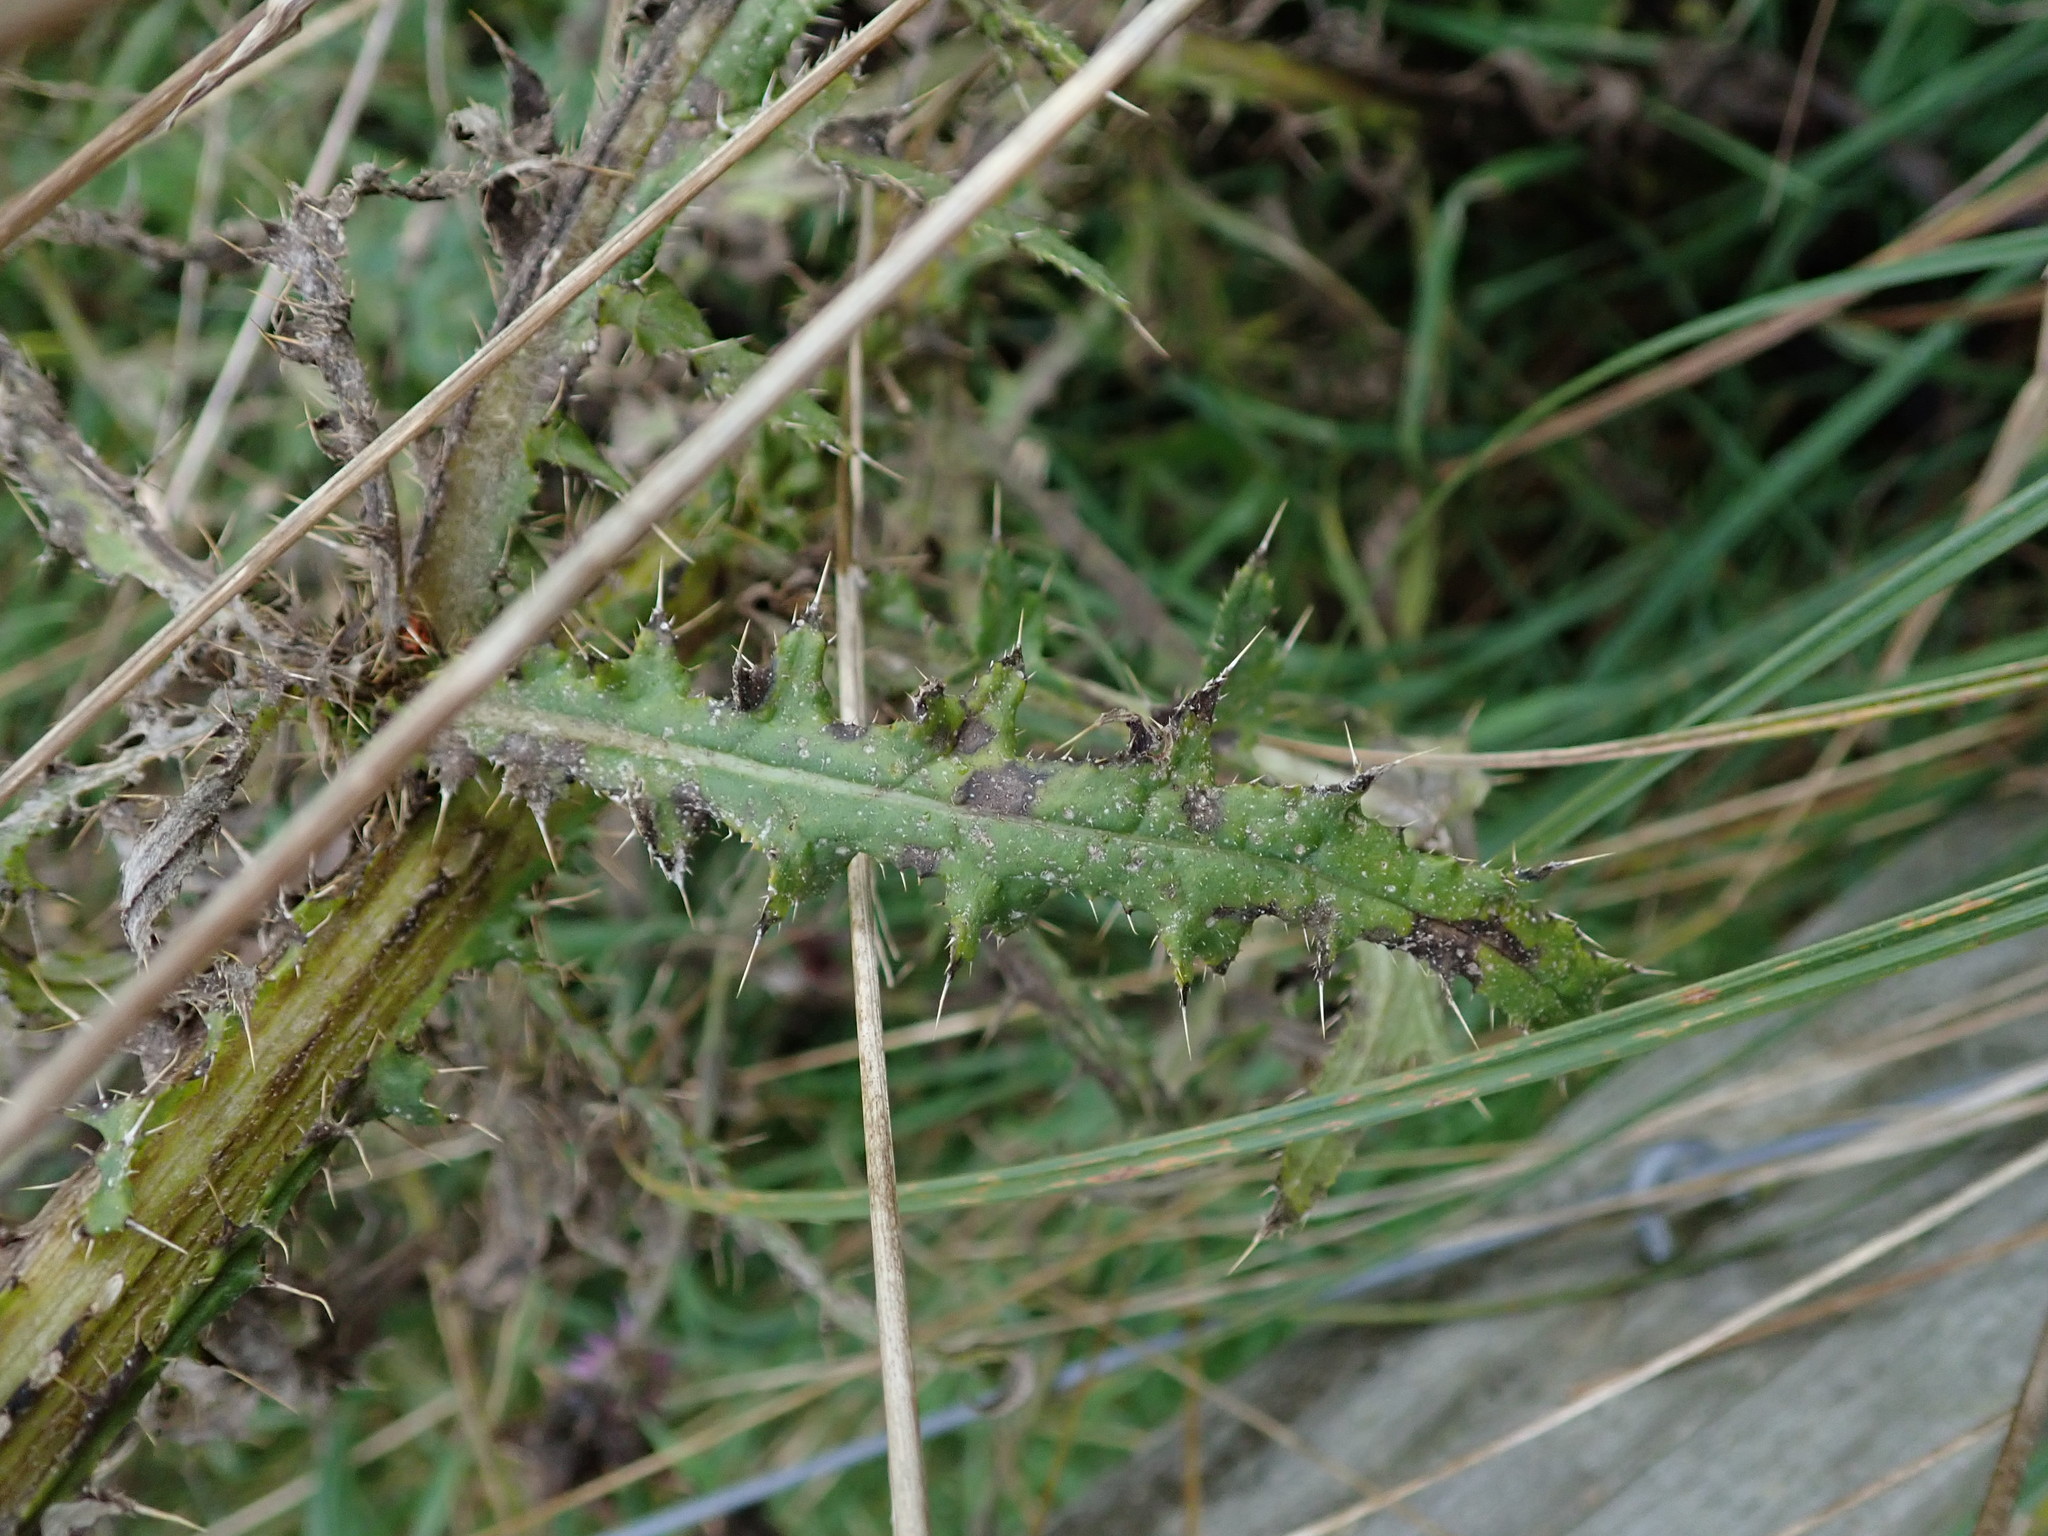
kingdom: Plantae
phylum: Tracheophyta
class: Magnoliopsida
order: Asterales
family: Asteraceae
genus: Cirsium
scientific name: Cirsium palustre
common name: Marsh thistle
